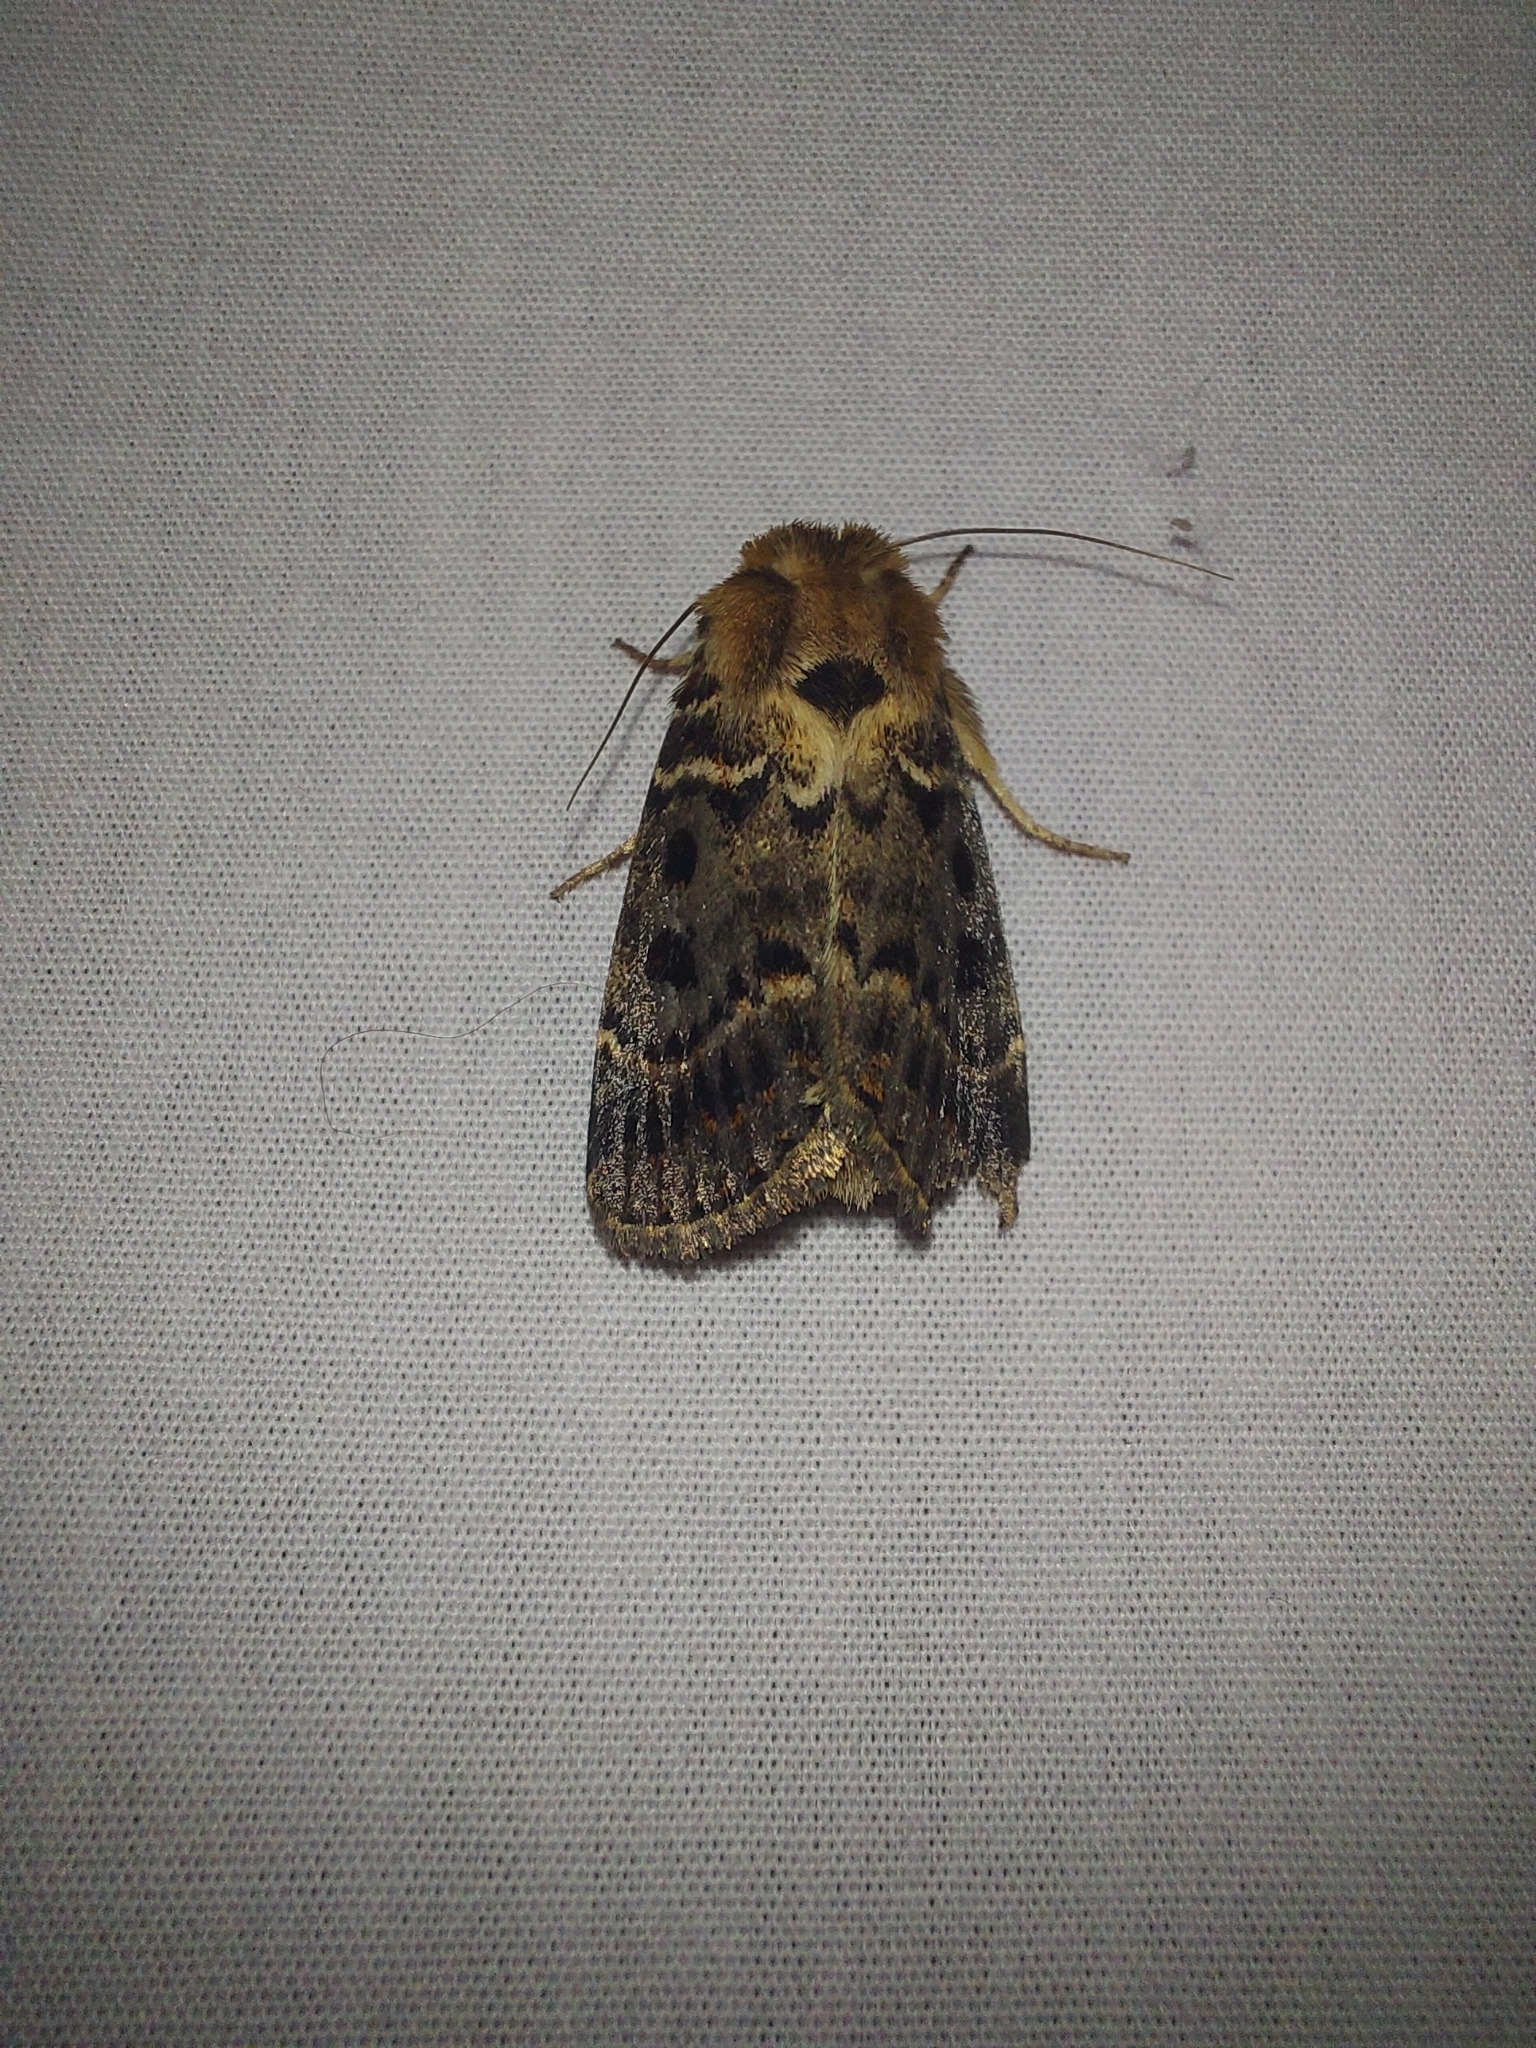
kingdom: Animalia
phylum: Arthropoda
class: Insecta
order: Lepidoptera
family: Noctuidae
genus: Proteuxoa
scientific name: Proteuxoa sanguinipuncta
